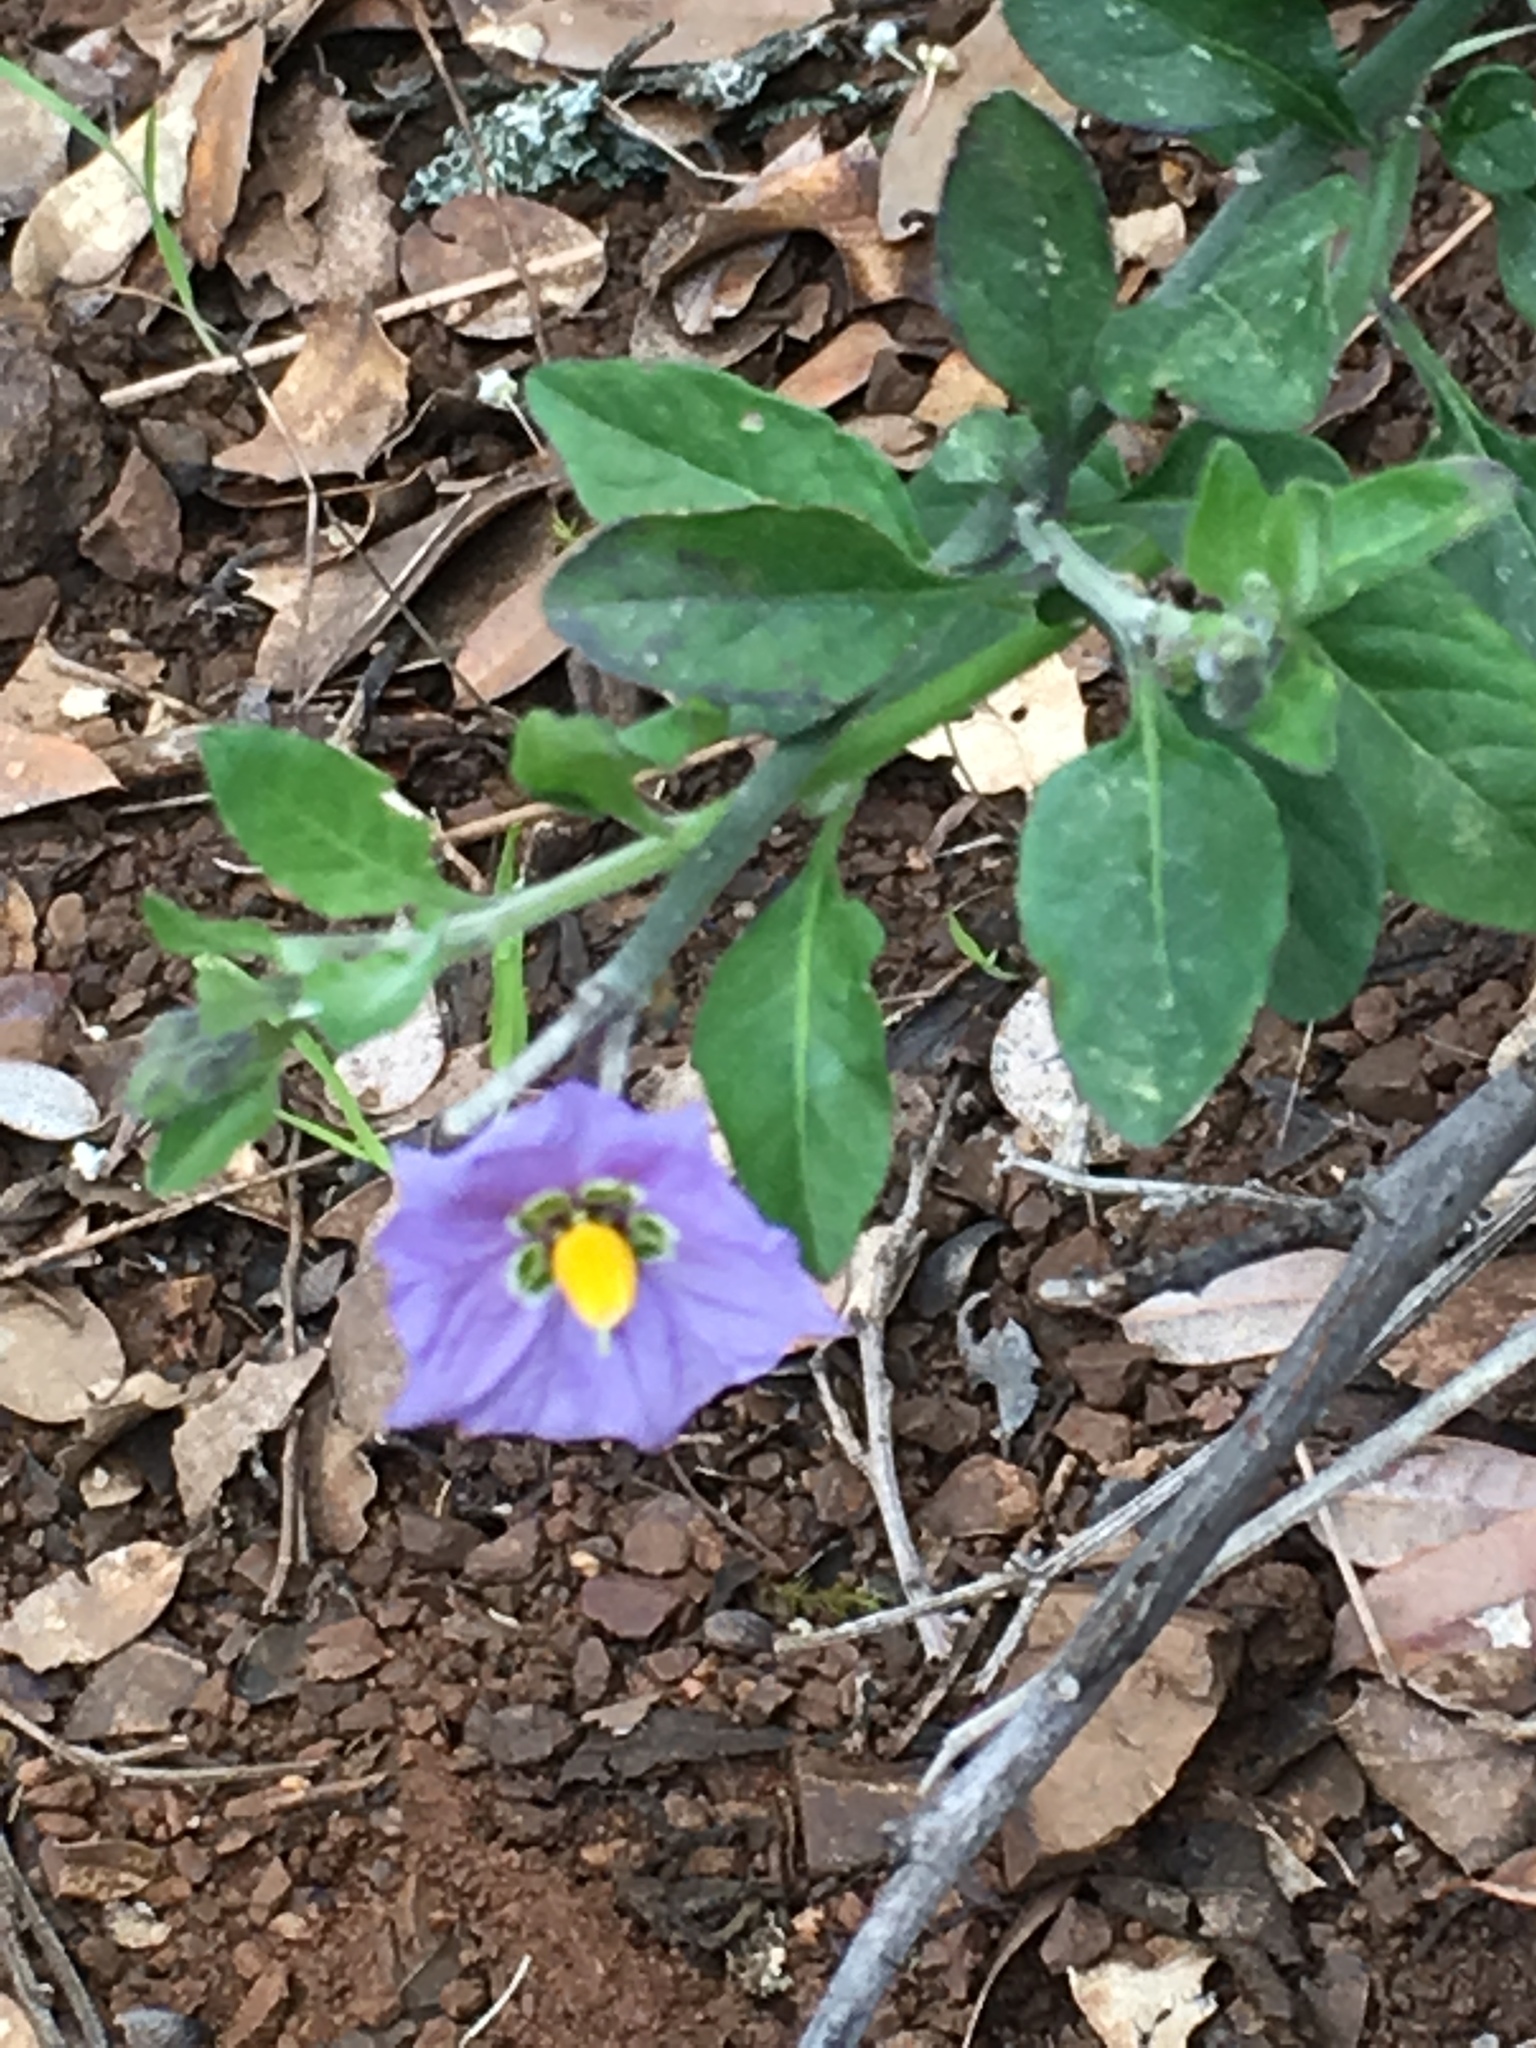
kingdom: Plantae
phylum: Tracheophyta
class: Magnoliopsida
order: Solanales
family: Solanaceae
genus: Solanum
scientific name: Solanum umbelliferum
